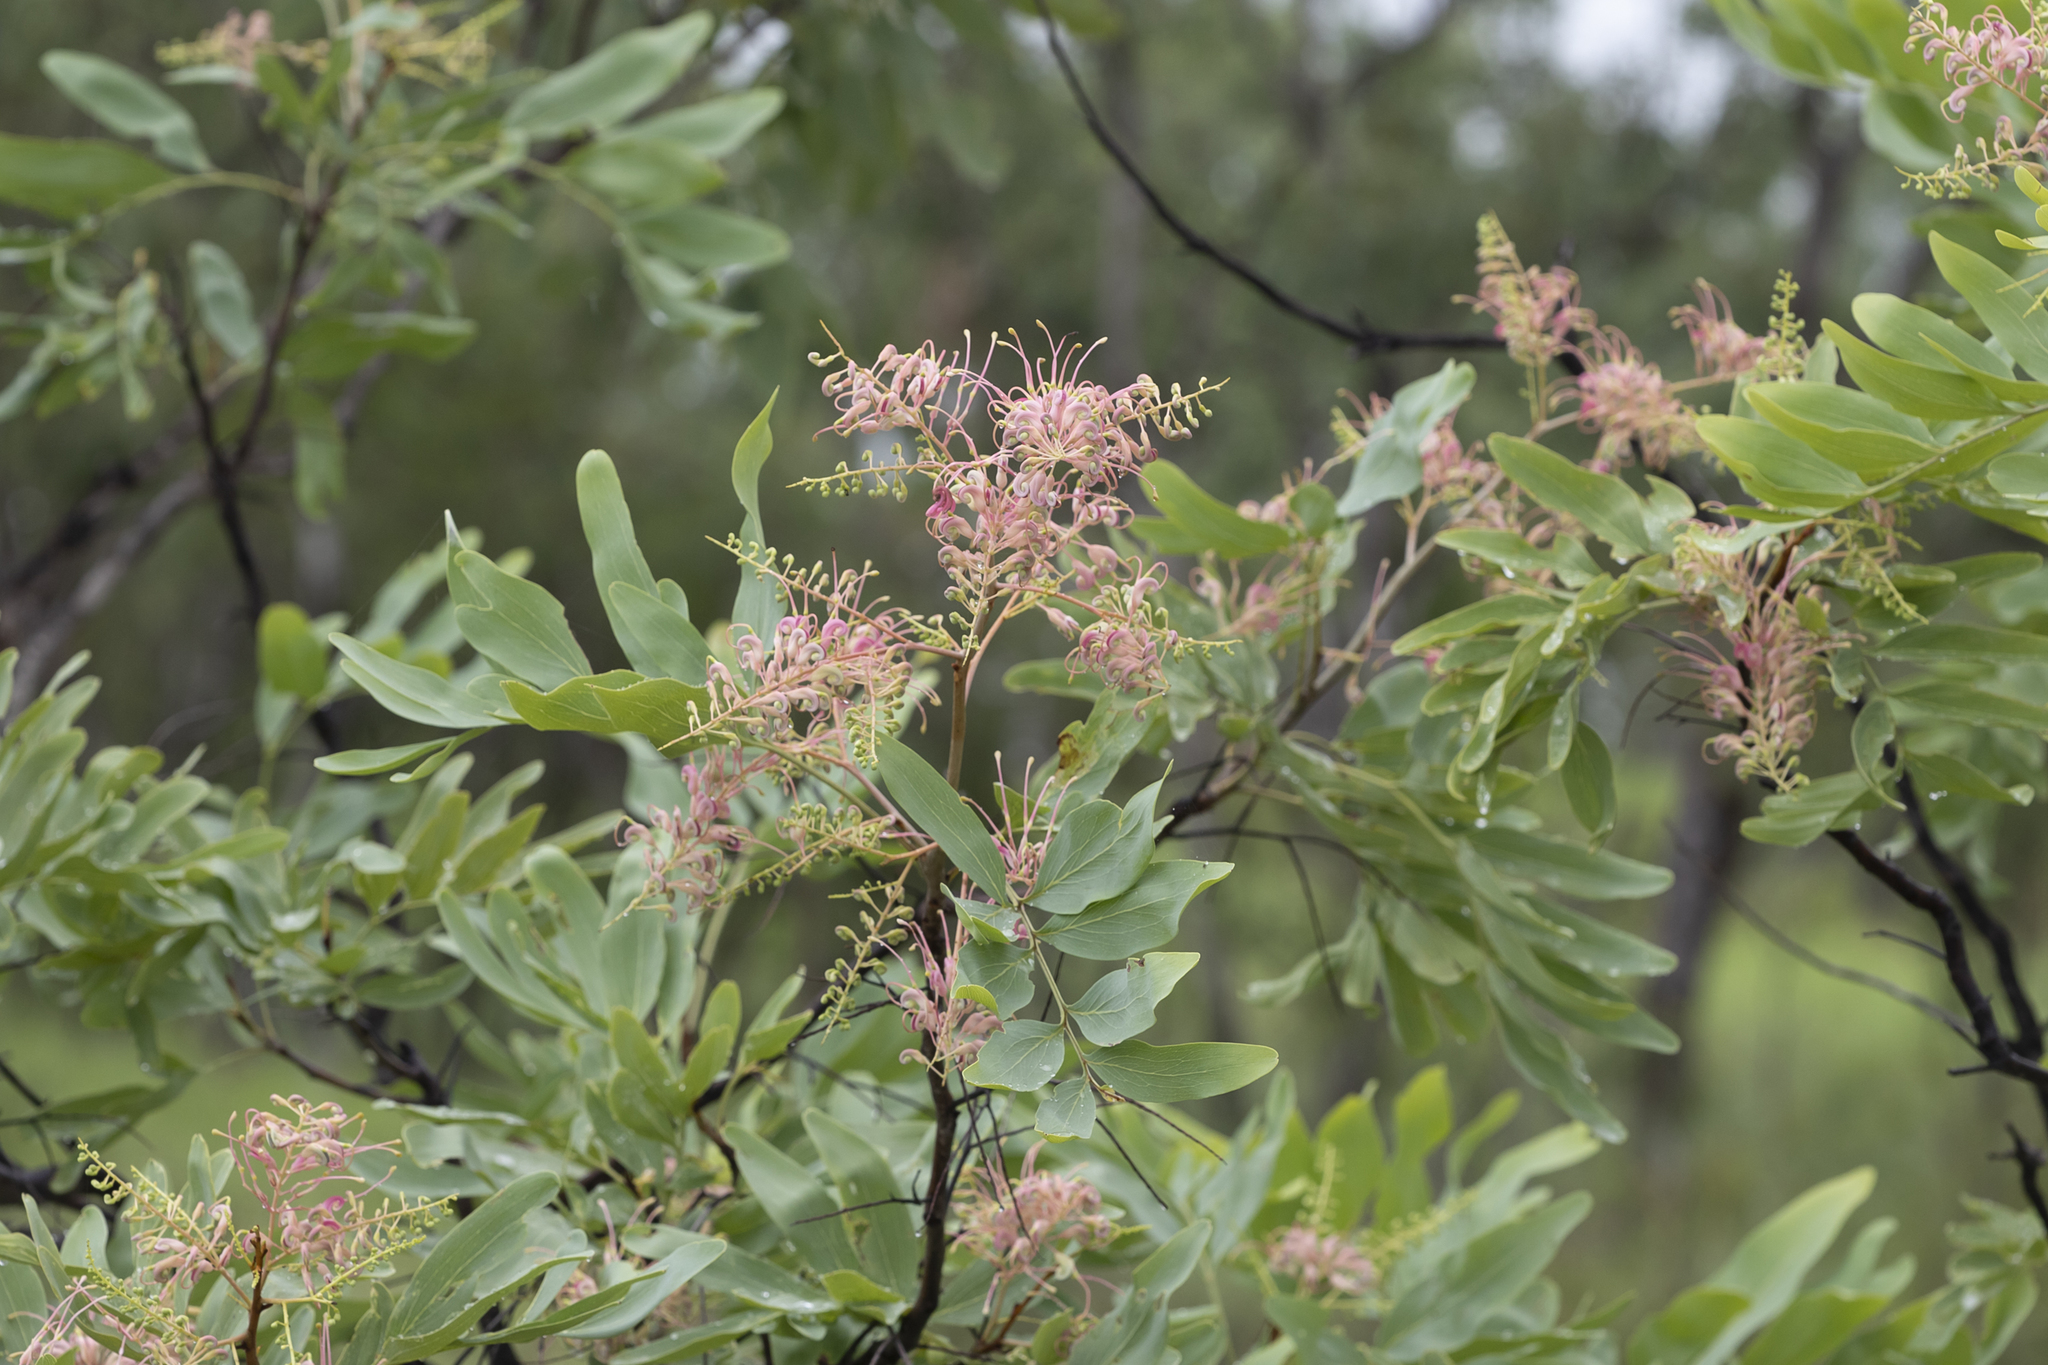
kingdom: Plantae
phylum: Tracheophyta
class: Magnoliopsida
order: Proteales
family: Proteaceae
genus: Grevillea
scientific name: Grevillea decurrens
